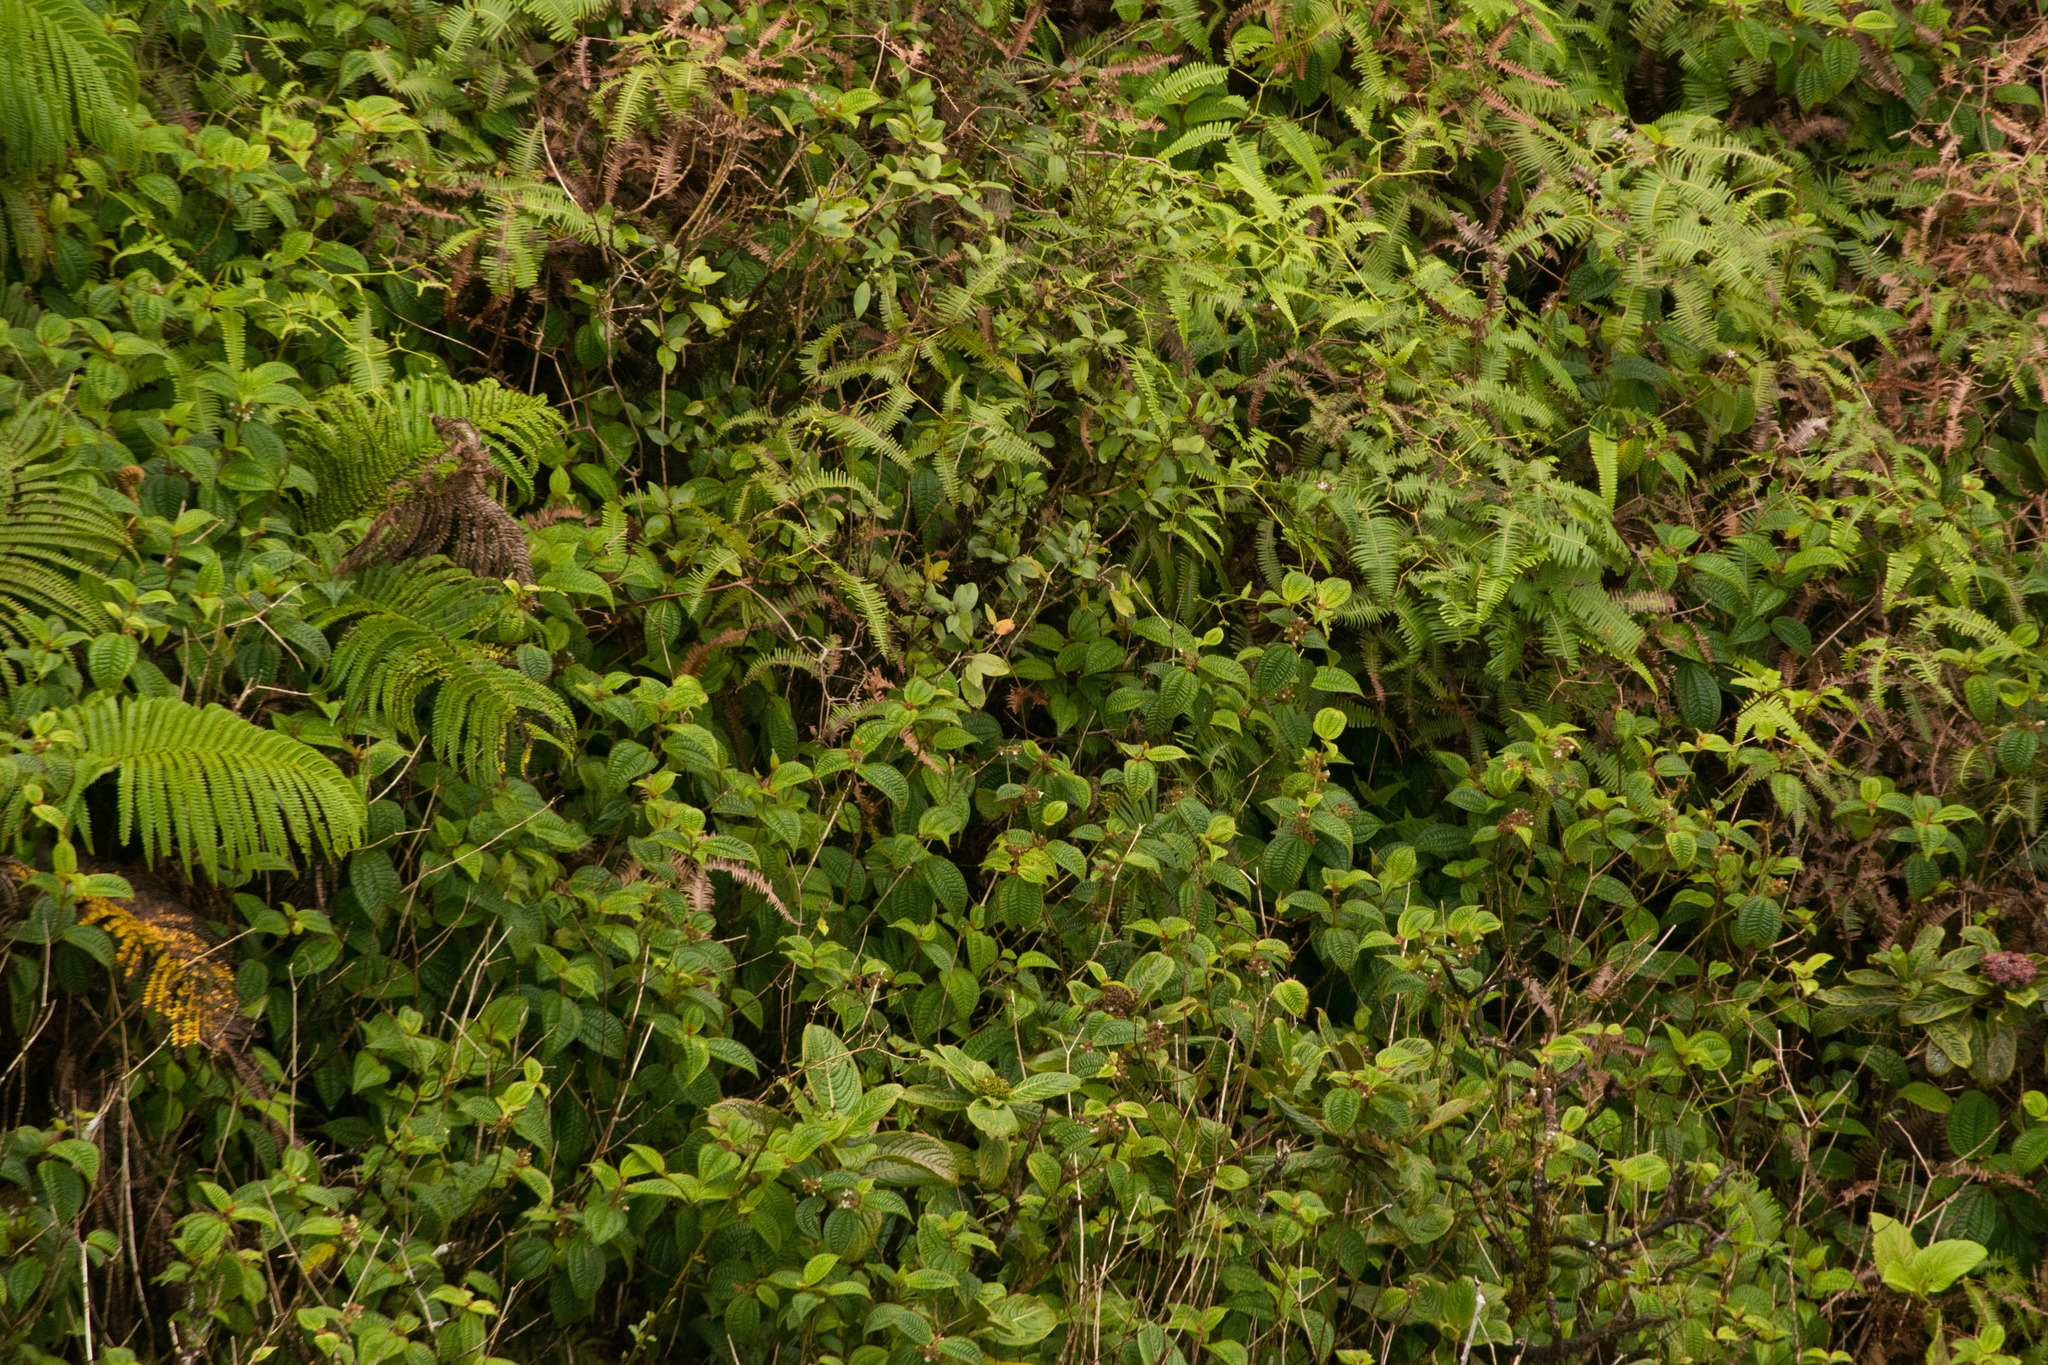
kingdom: Plantae
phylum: Tracheophyta
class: Magnoliopsida
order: Myrtales
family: Melastomataceae
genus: Miconia
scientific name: Miconia crenata
